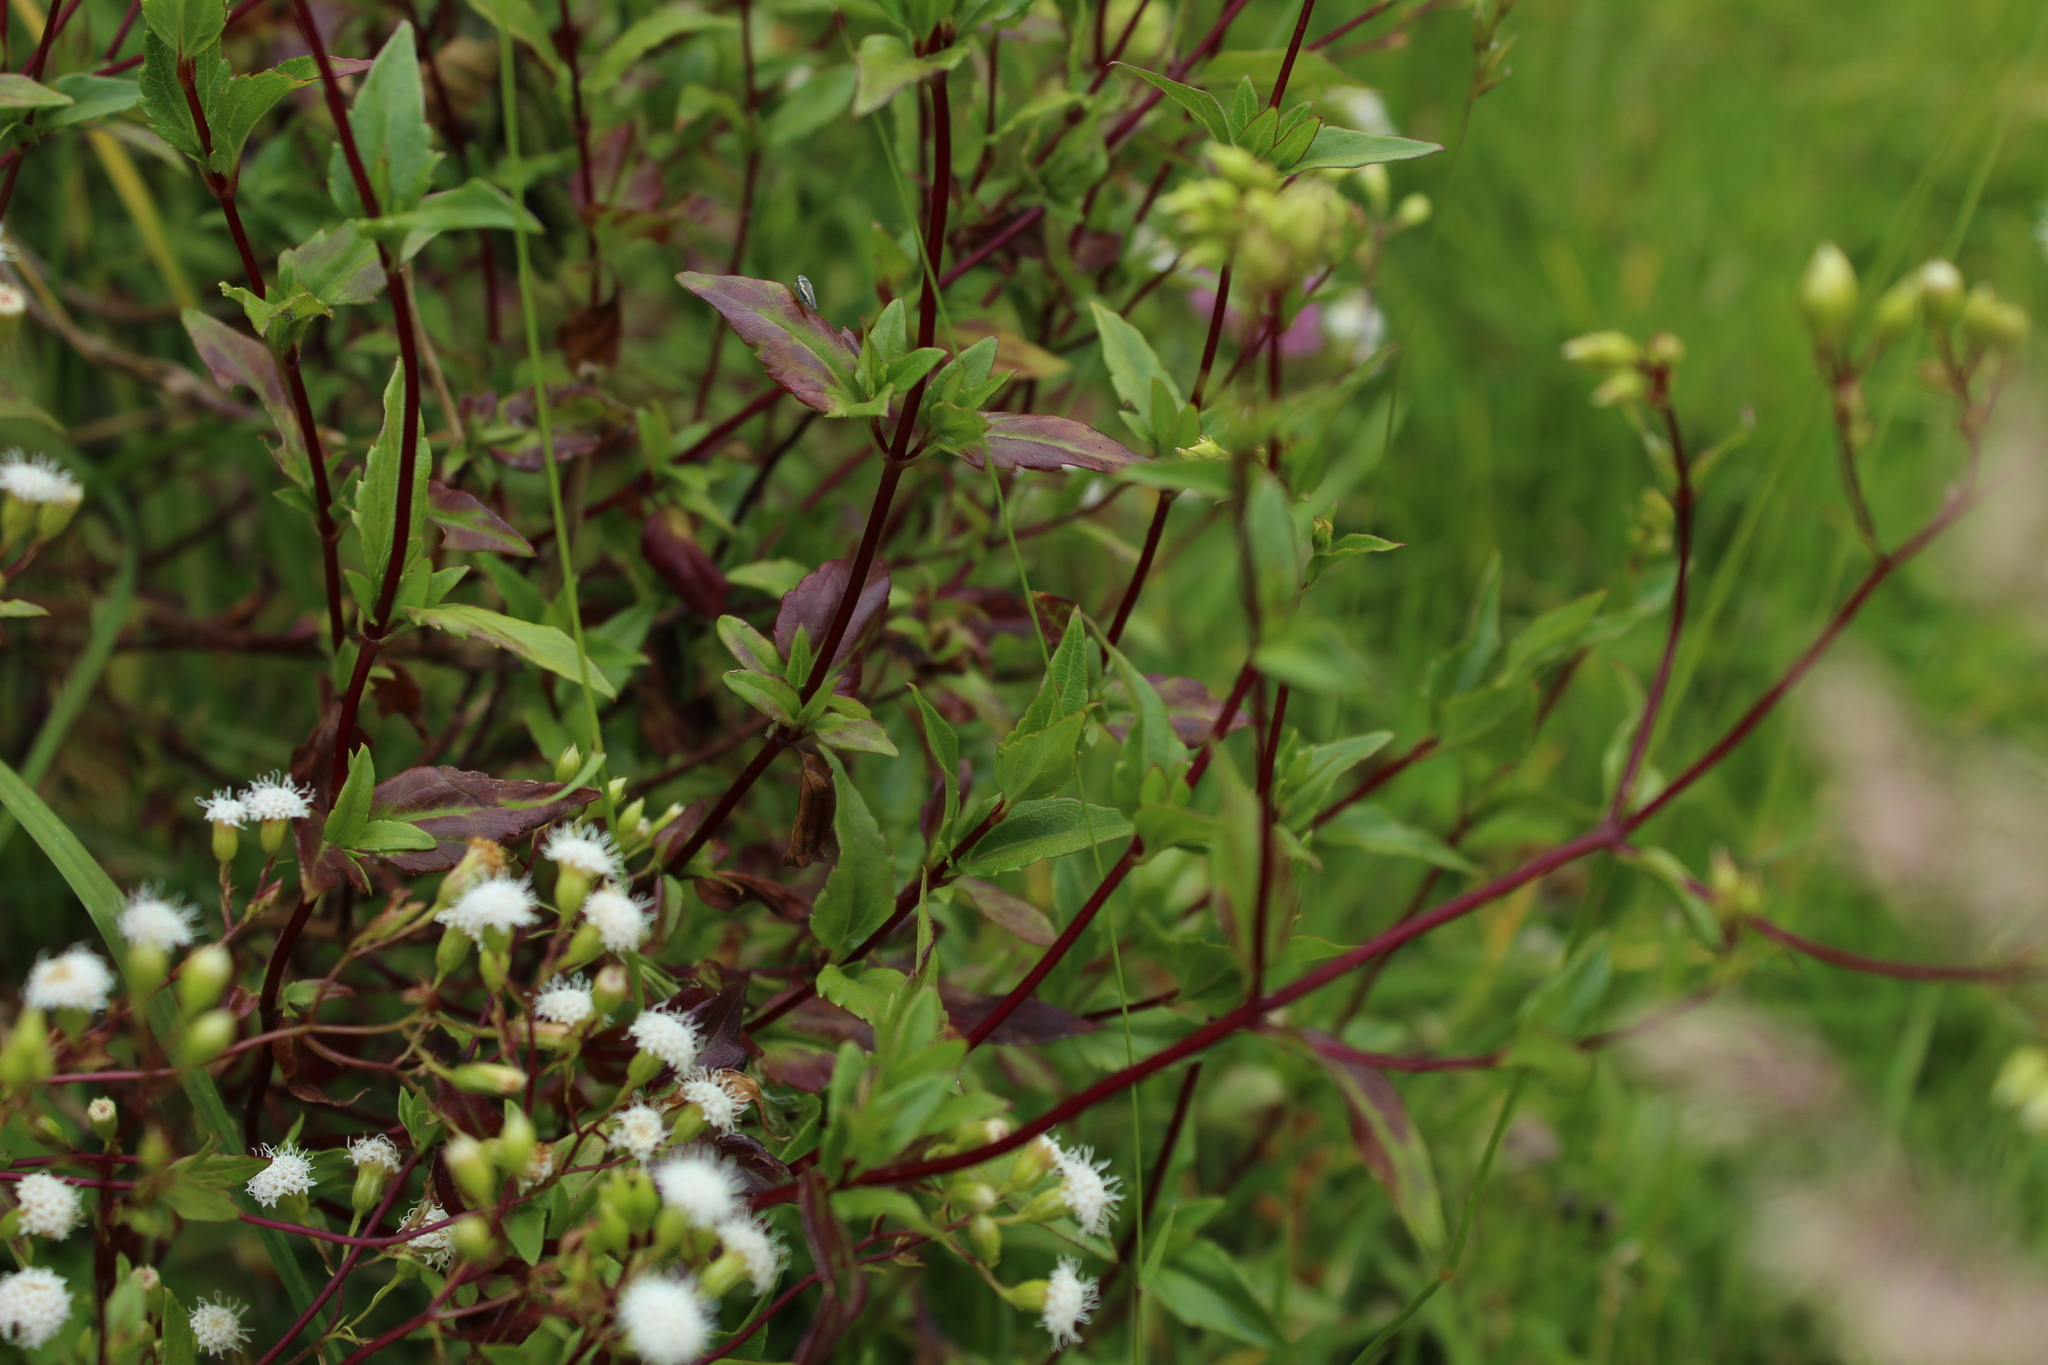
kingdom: Plantae
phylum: Tracheophyta
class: Magnoliopsida
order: Asterales
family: Asteraceae
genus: Ageratina
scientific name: Ageratina gracilis
